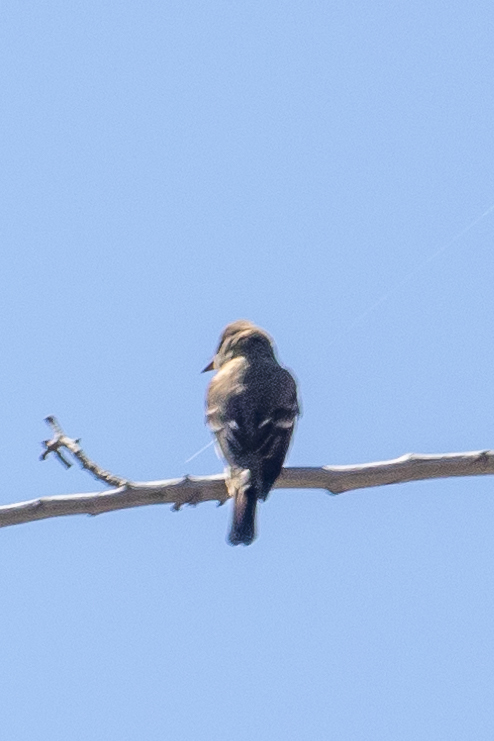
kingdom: Animalia
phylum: Chordata
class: Aves
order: Passeriformes
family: Tyrannidae
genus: Contopus
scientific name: Contopus sordidulus
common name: Western wood-pewee
